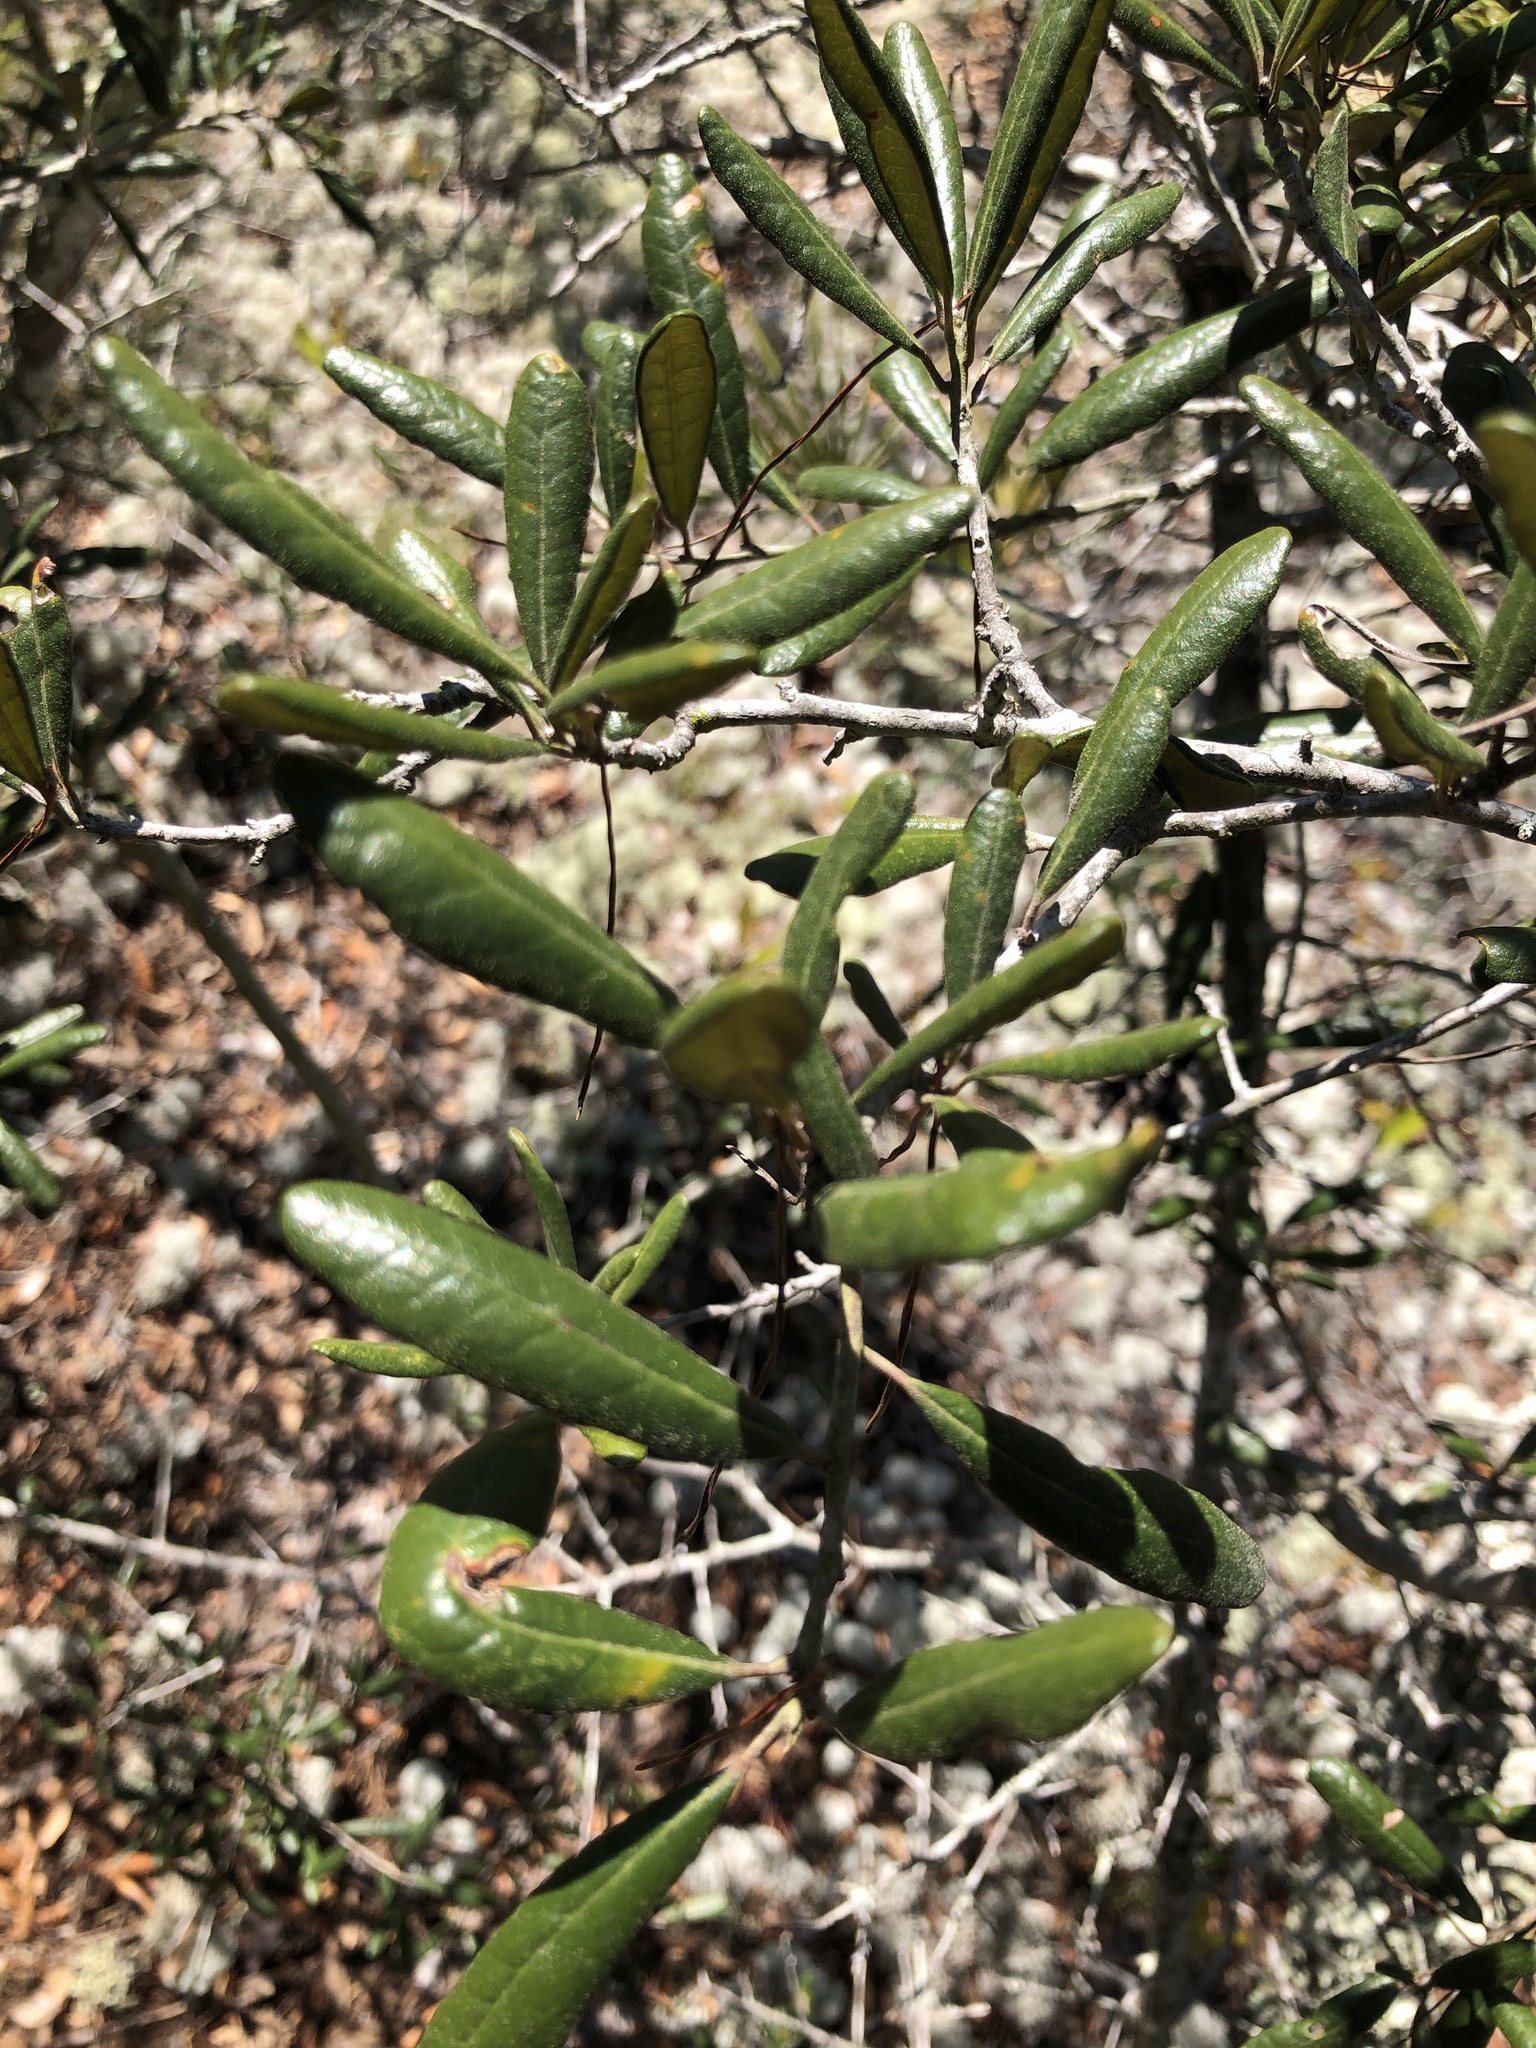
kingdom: Plantae
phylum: Tracheophyta
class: Magnoliopsida
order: Fagales
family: Fagaceae
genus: Quercus
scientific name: Quercus geminata
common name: Sand live oak
